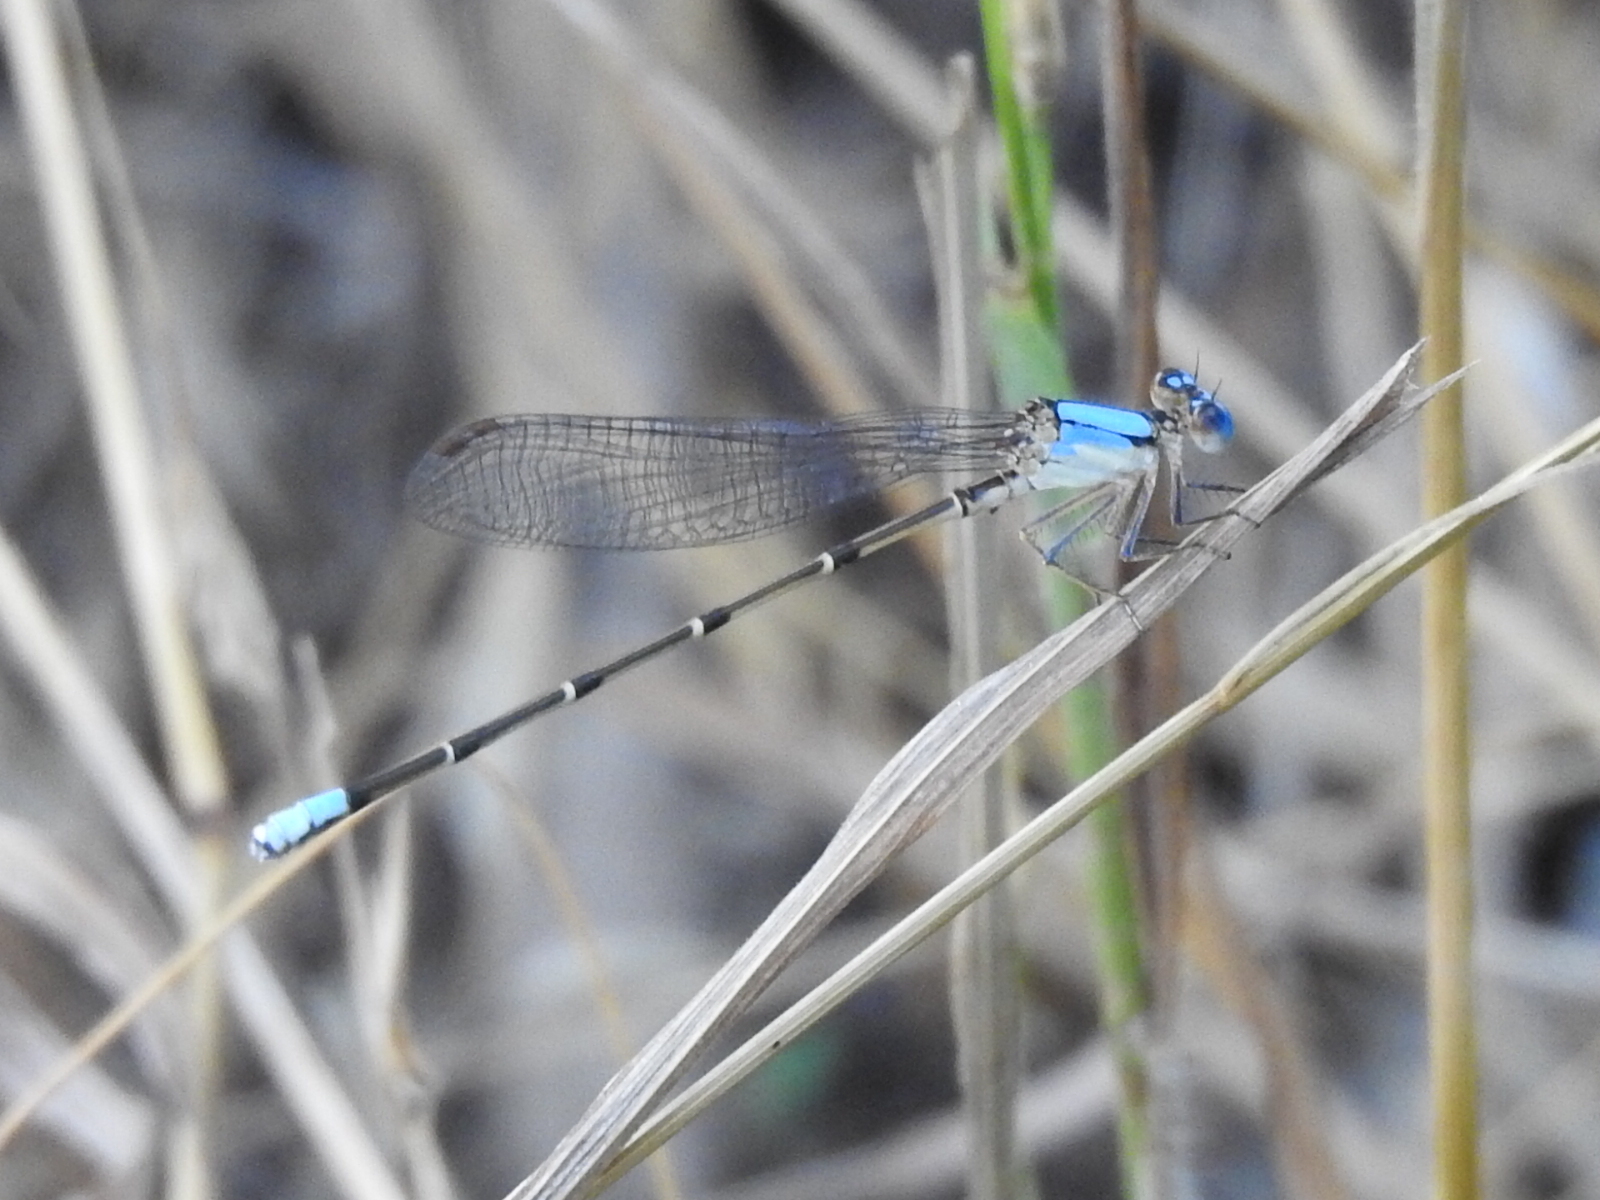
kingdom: Animalia
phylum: Arthropoda
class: Insecta
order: Odonata
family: Coenagrionidae
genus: Argia
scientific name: Argia apicalis
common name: Blue-fronted dancer
